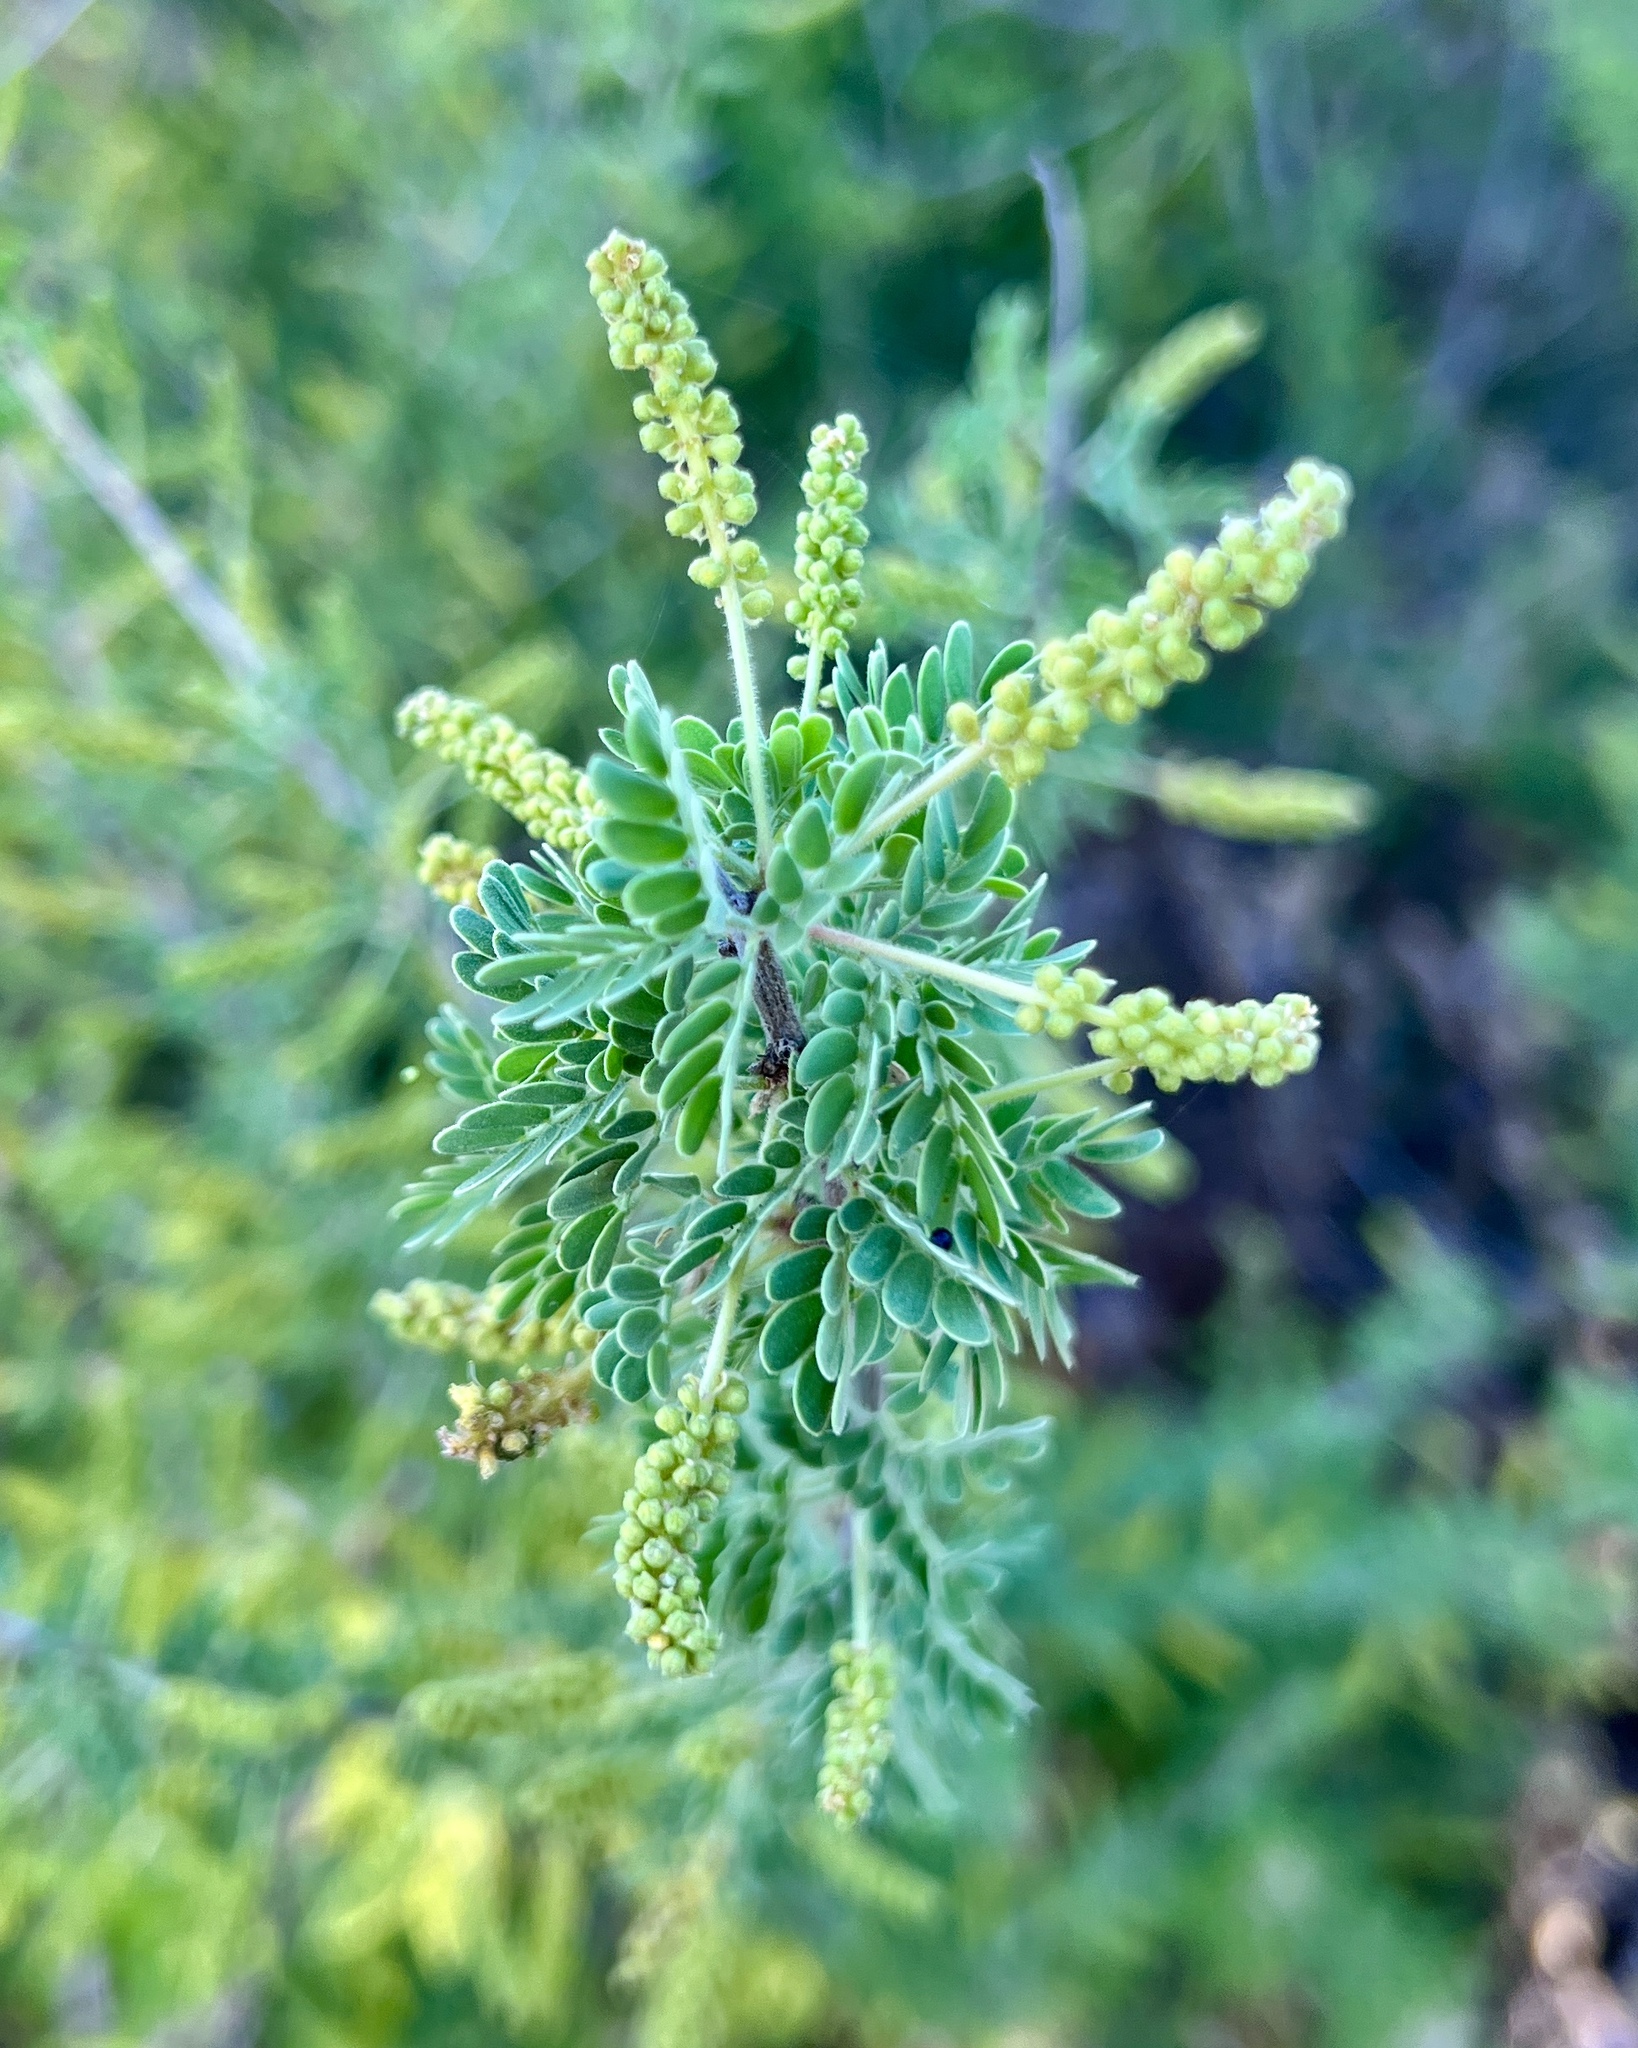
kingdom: Plantae
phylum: Tracheophyta
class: Magnoliopsida
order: Fabales
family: Fabaceae
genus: Senegalia
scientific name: Senegalia greggii
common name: Texas-mimosa
